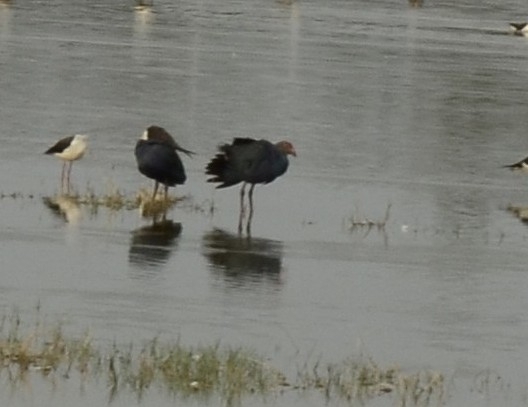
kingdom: Animalia
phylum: Chordata
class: Aves
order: Gruiformes
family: Rallidae
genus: Porphyrio
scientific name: Porphyrio porphyrio
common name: Purple swamphen
